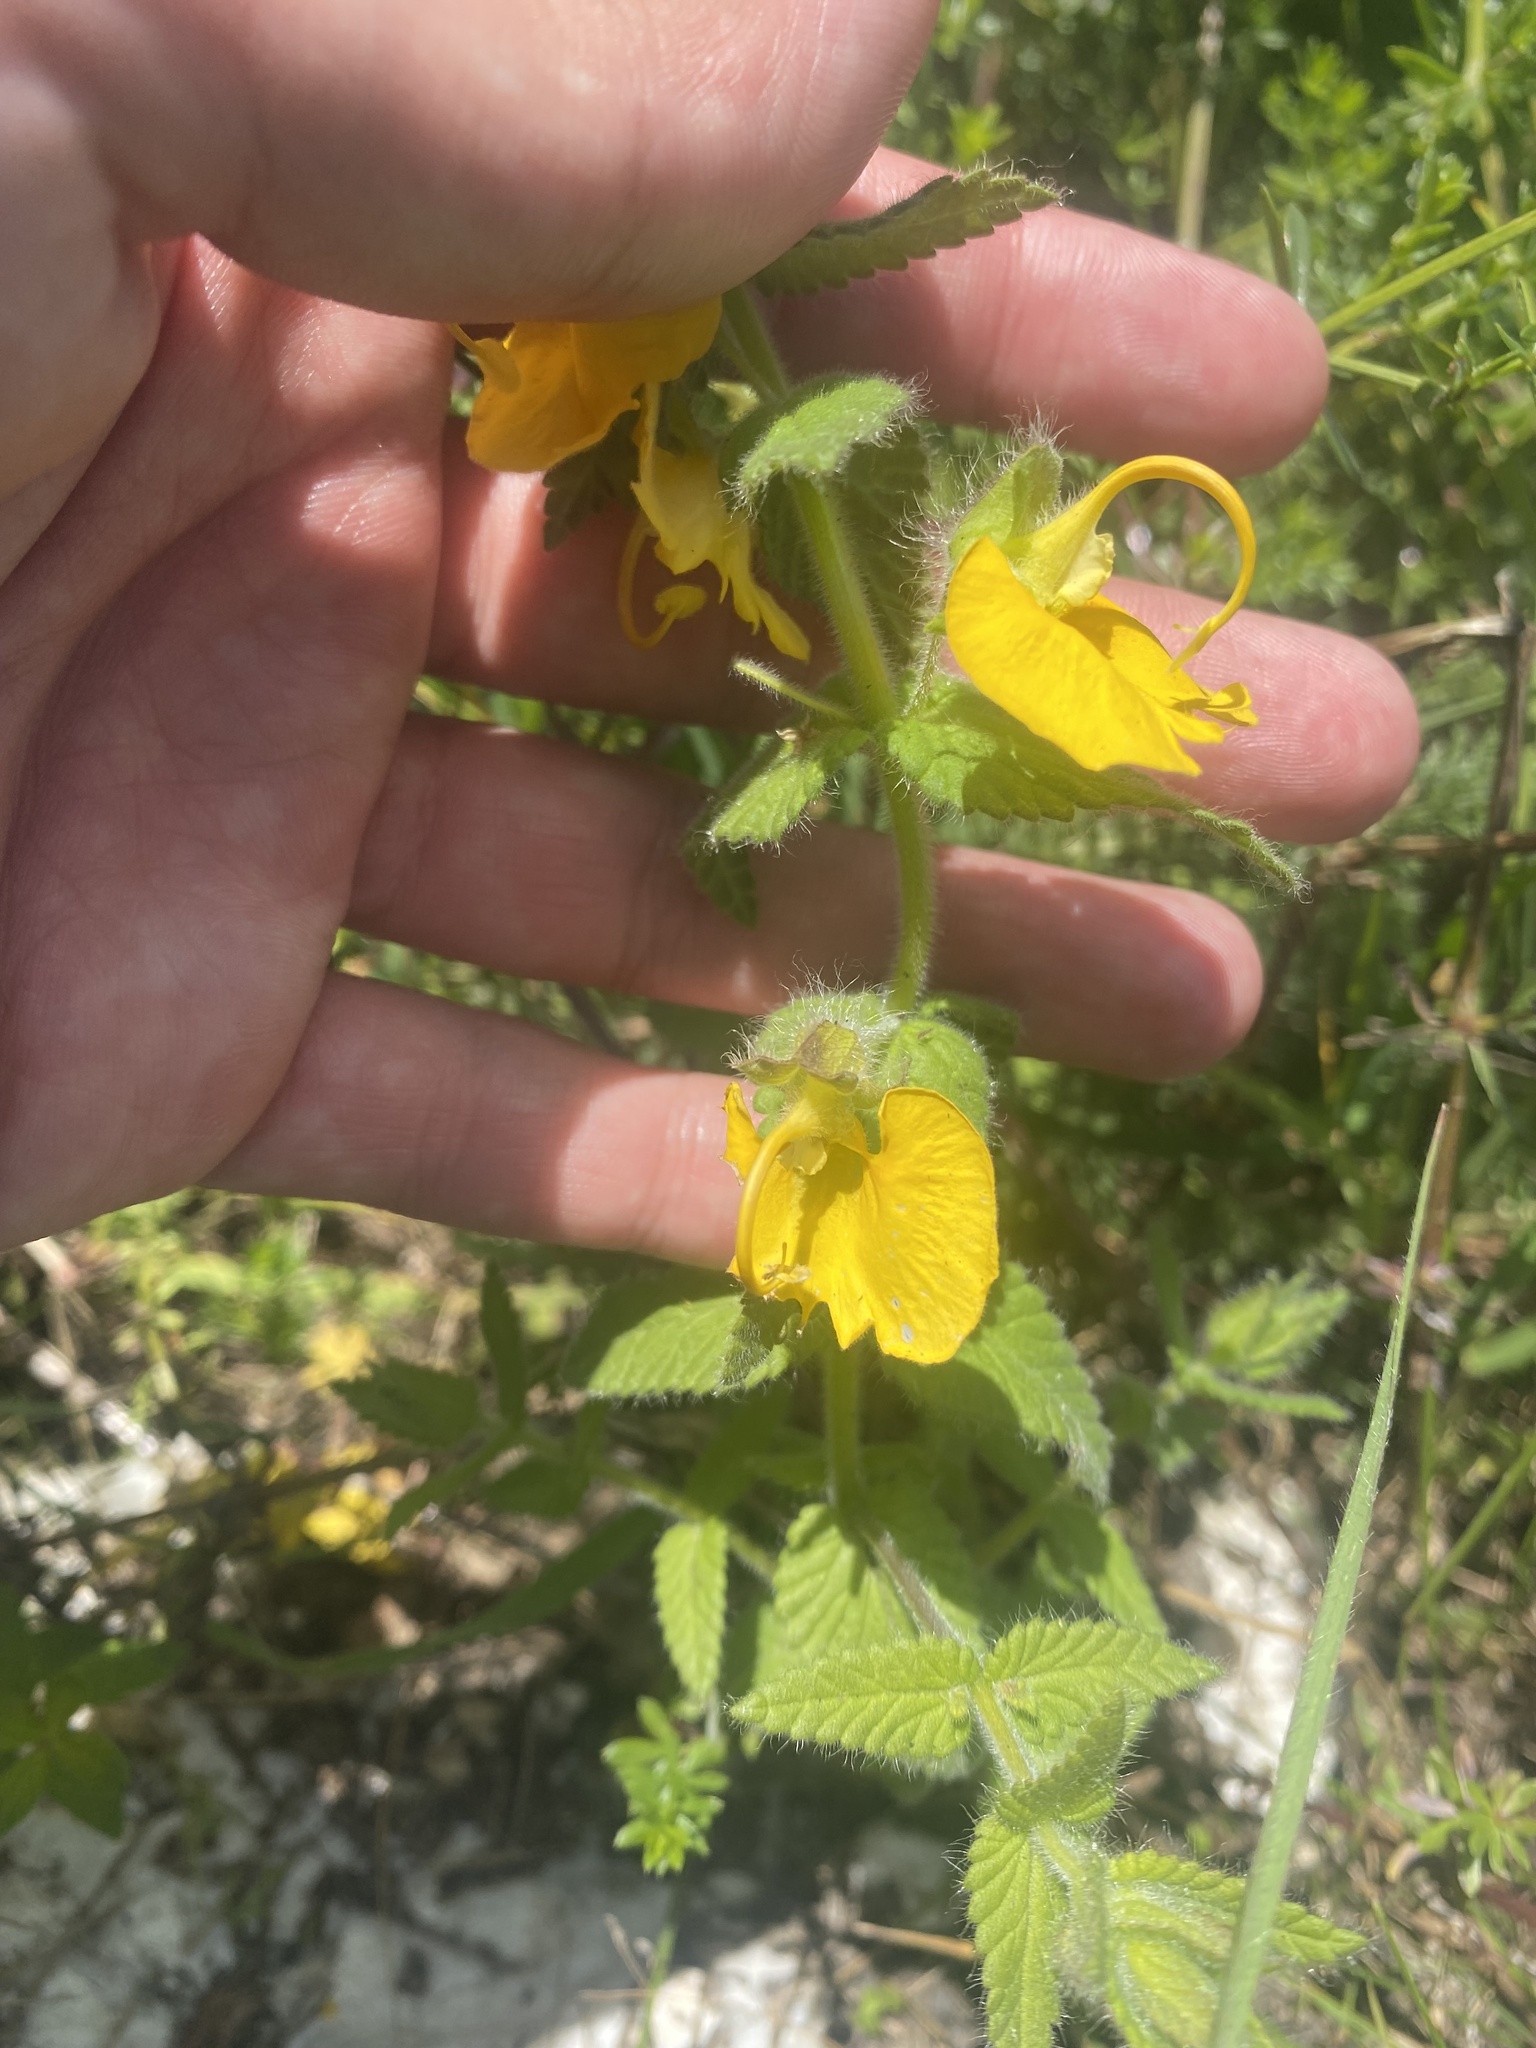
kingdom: Plantae
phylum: Tracheophyta
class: Magnoliopsida
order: Lamiales
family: Orobanchaceae
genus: Rhynchocorys
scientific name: Rhynchocorys orientalis
